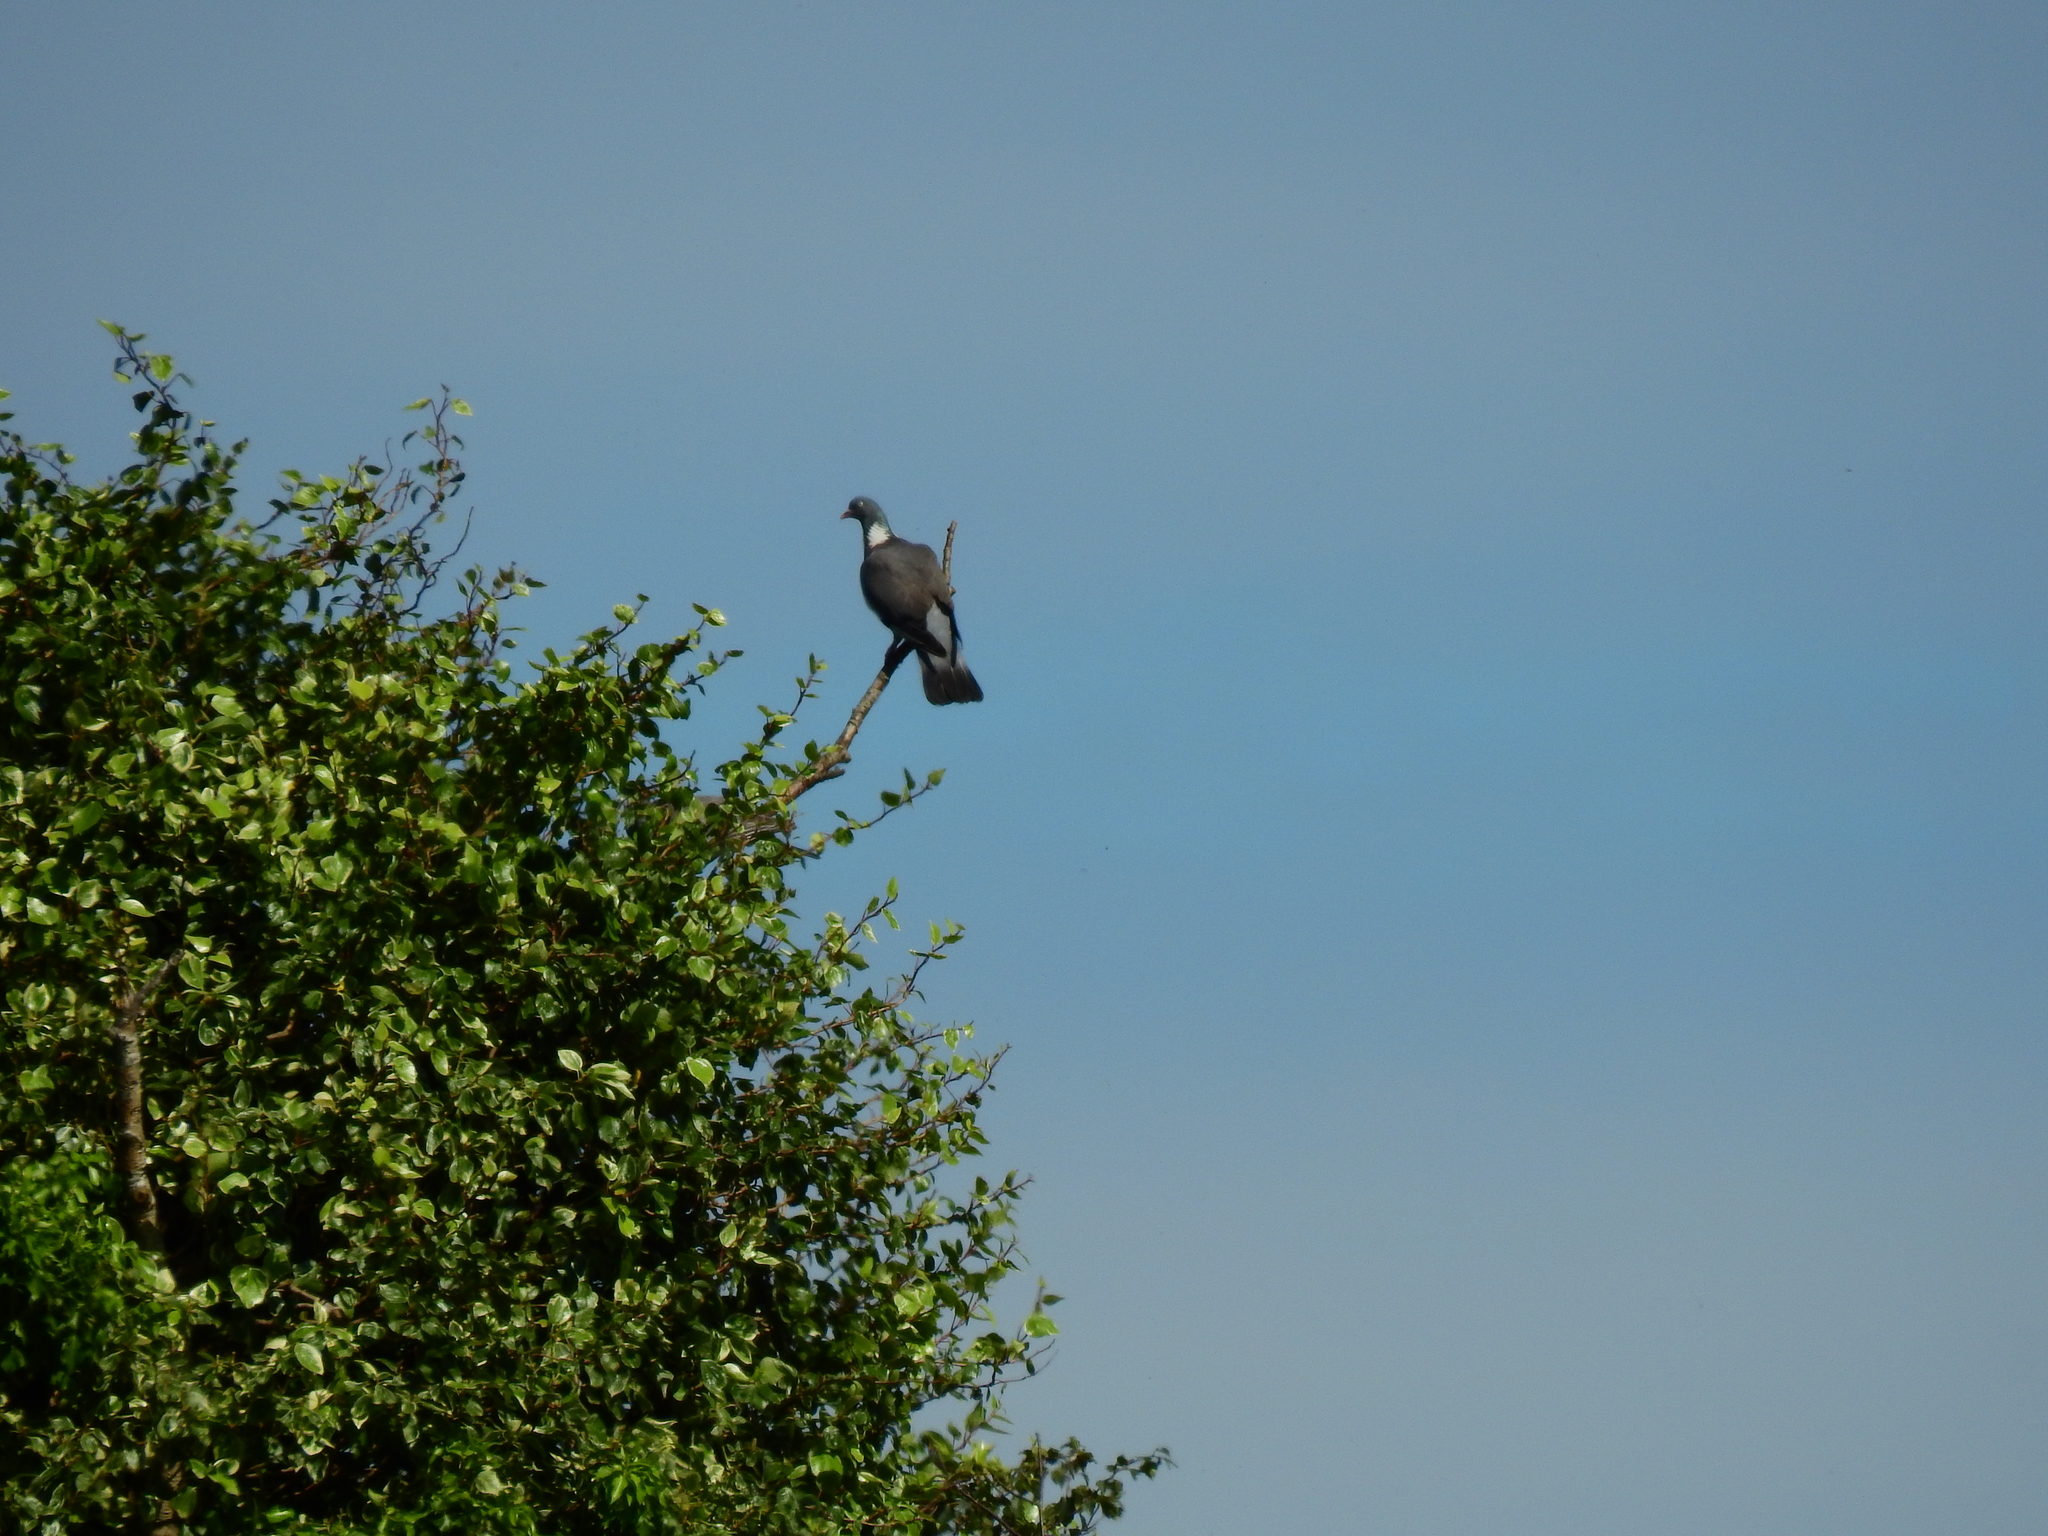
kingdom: Animalia
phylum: Chordata
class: Aves
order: Columbiformes
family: Columbidae
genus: Columba
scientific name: Columba palumbus
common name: Common wood pigeon
